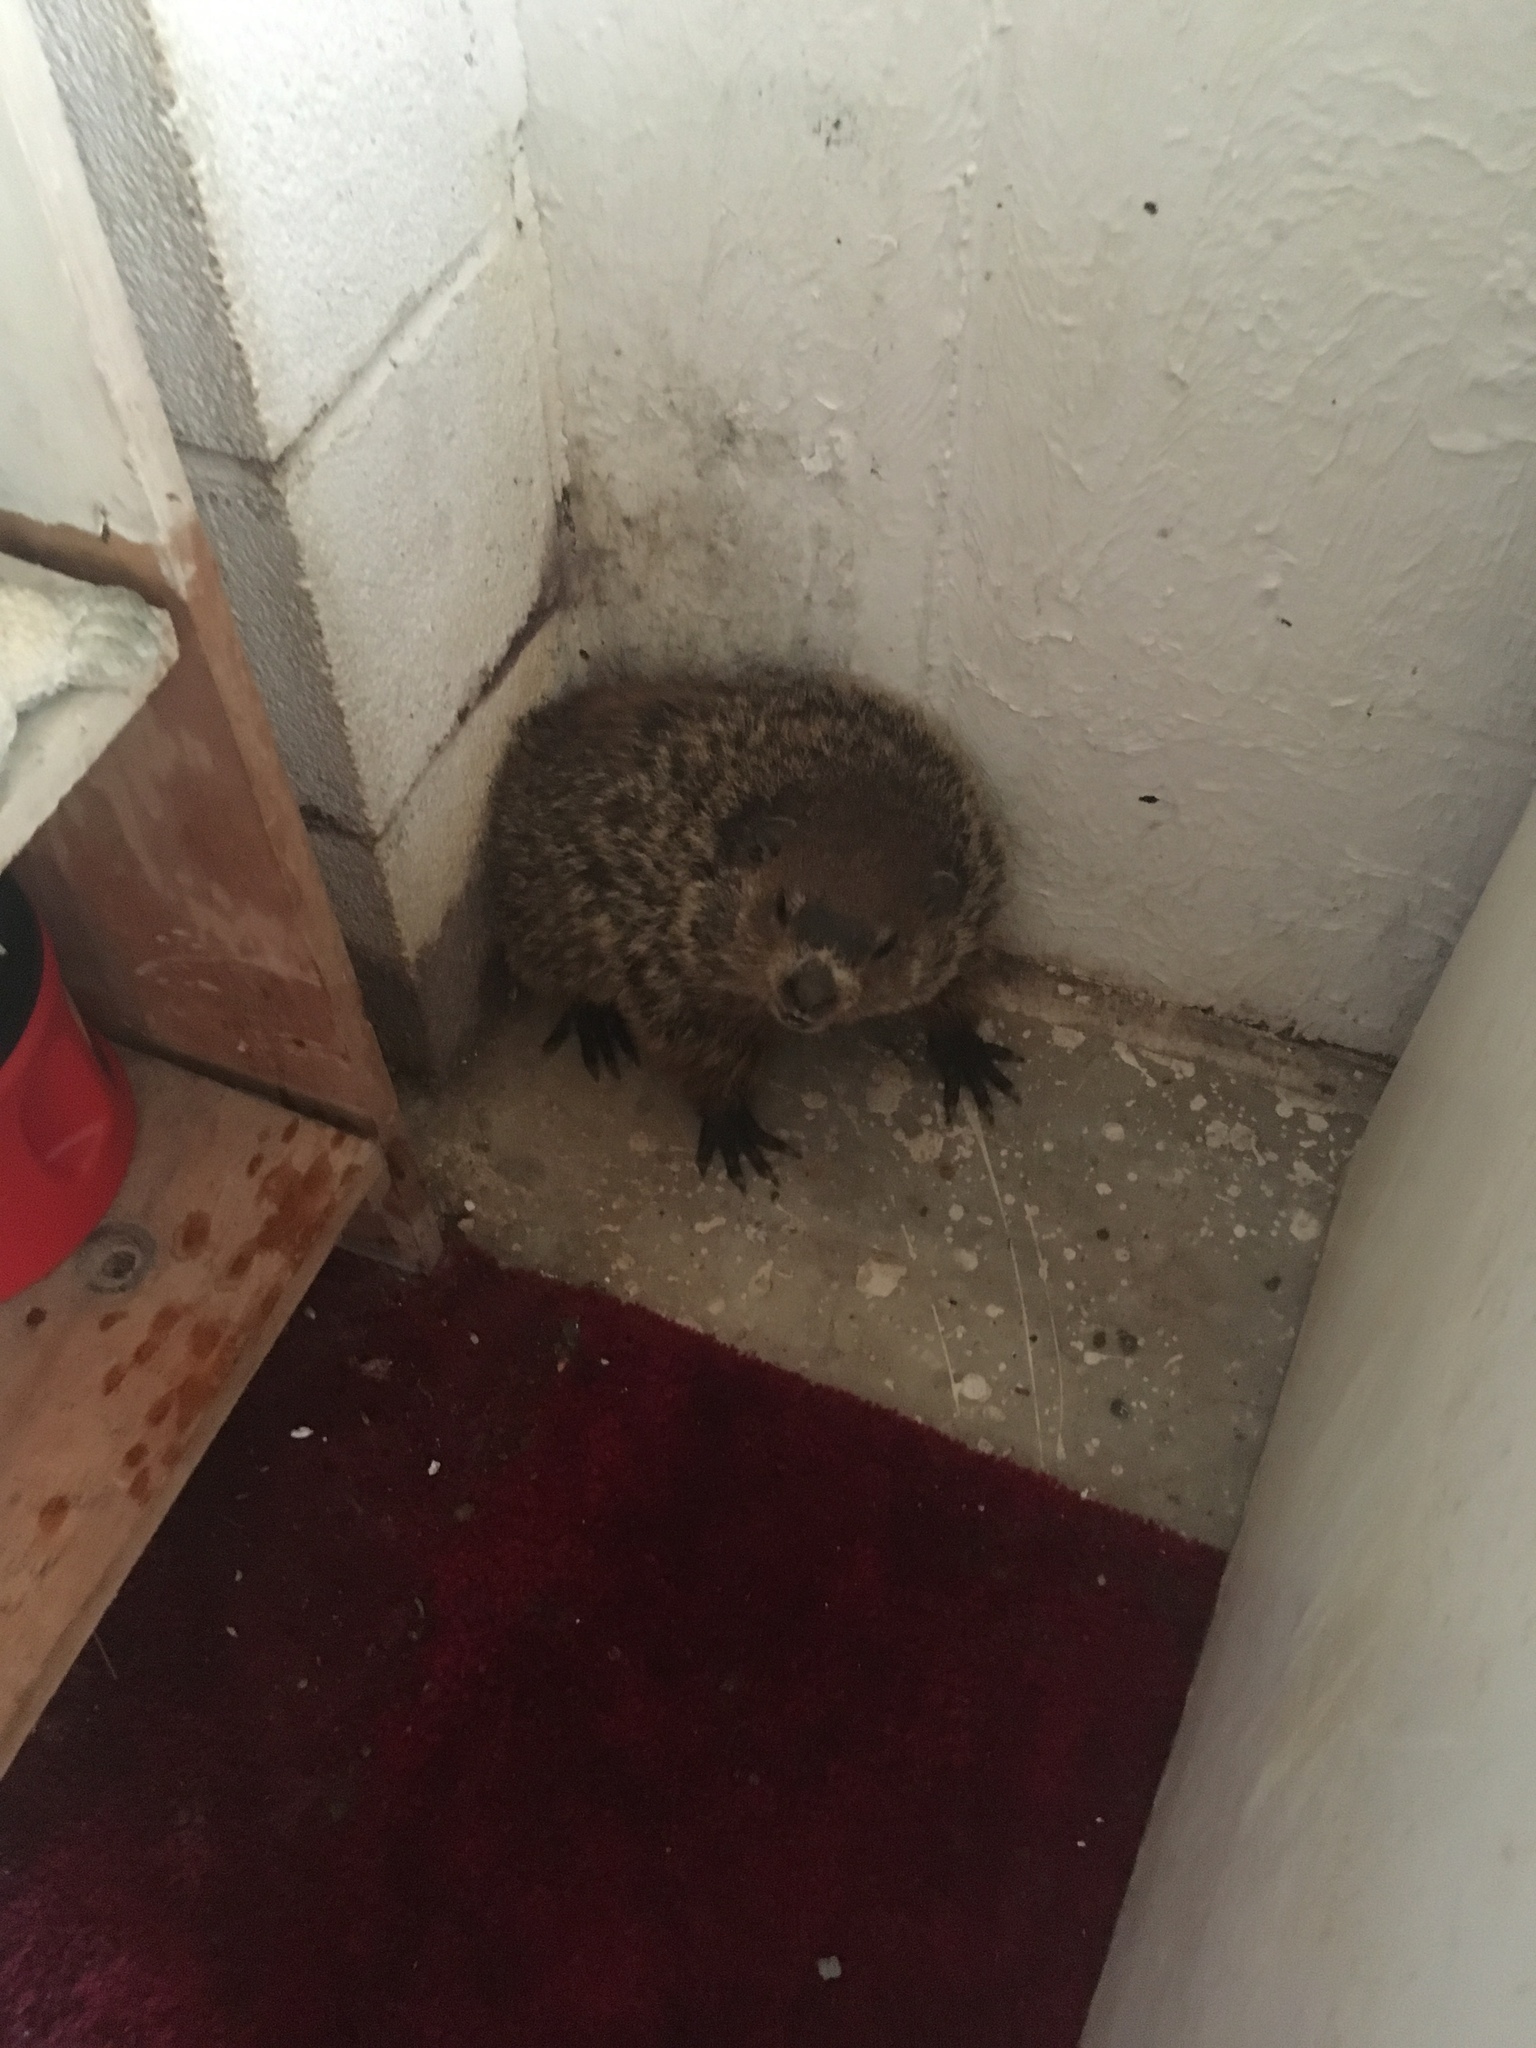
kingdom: Animalia
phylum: Chordata
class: Mammalia
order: Rodentia
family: Sciuridae
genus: Marmota
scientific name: Marmota monax
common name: Groundhog
